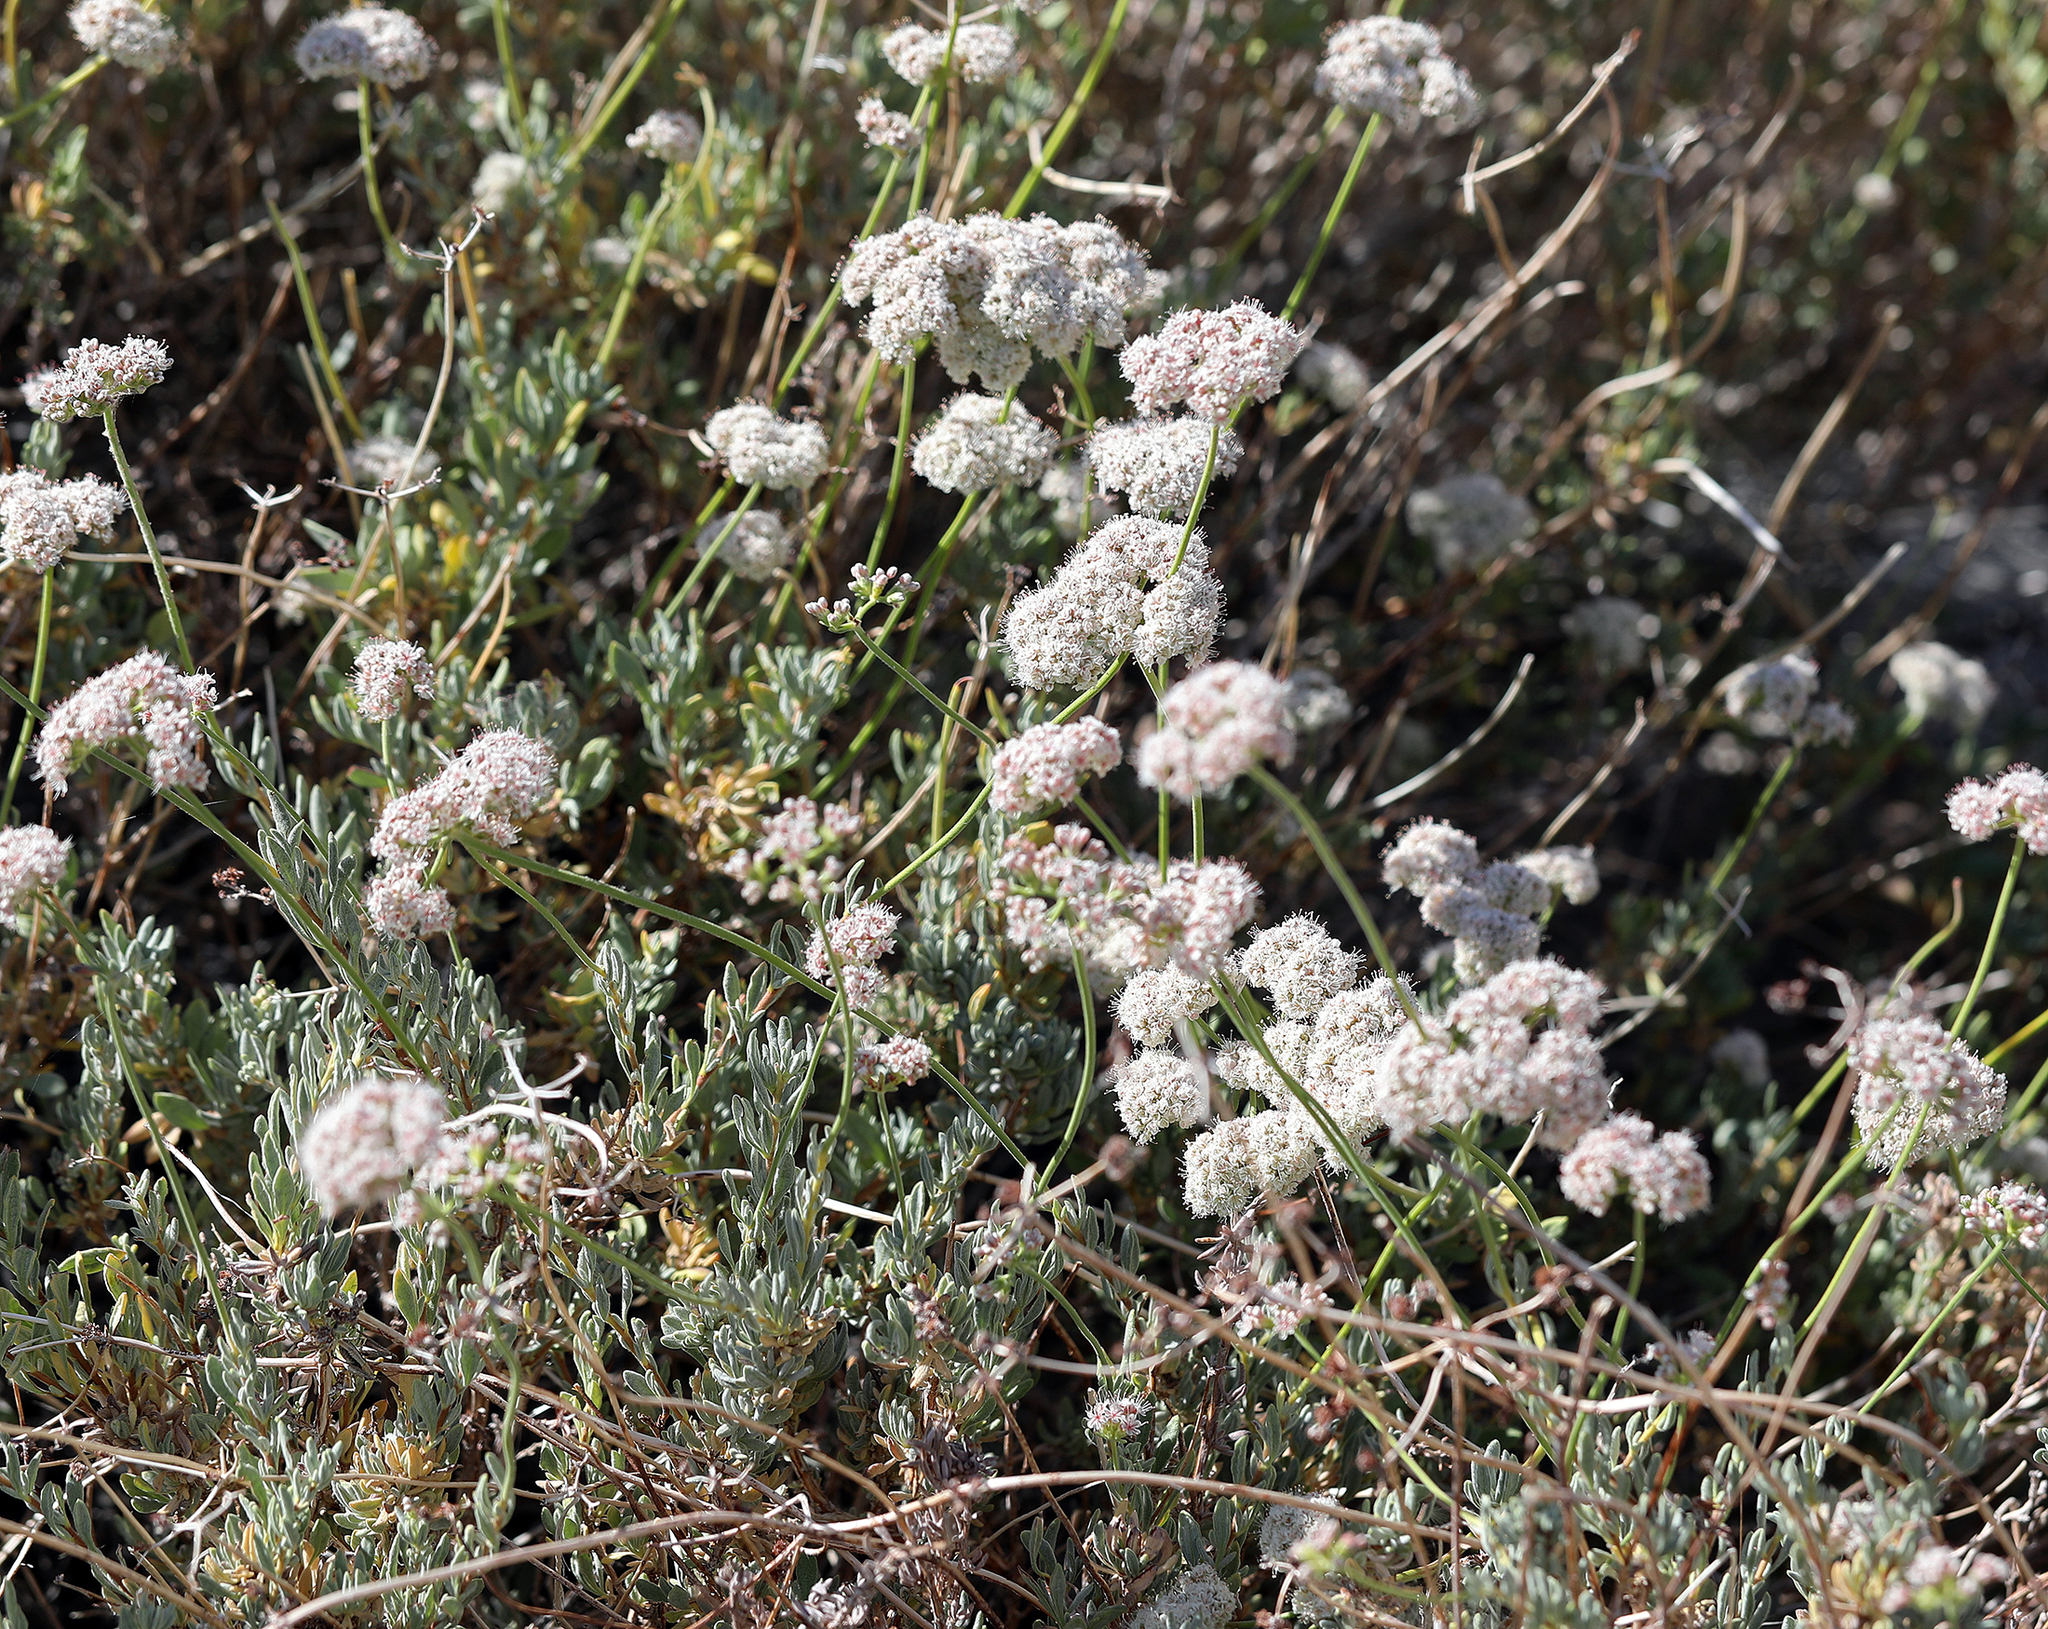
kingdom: Plantae
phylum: Tracheophyta
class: Magnoliopsida
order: Caryophyllales
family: Polygonaceae
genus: Eriogonum
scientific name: Eriogonum fasciculatum
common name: California wild buckwheat
